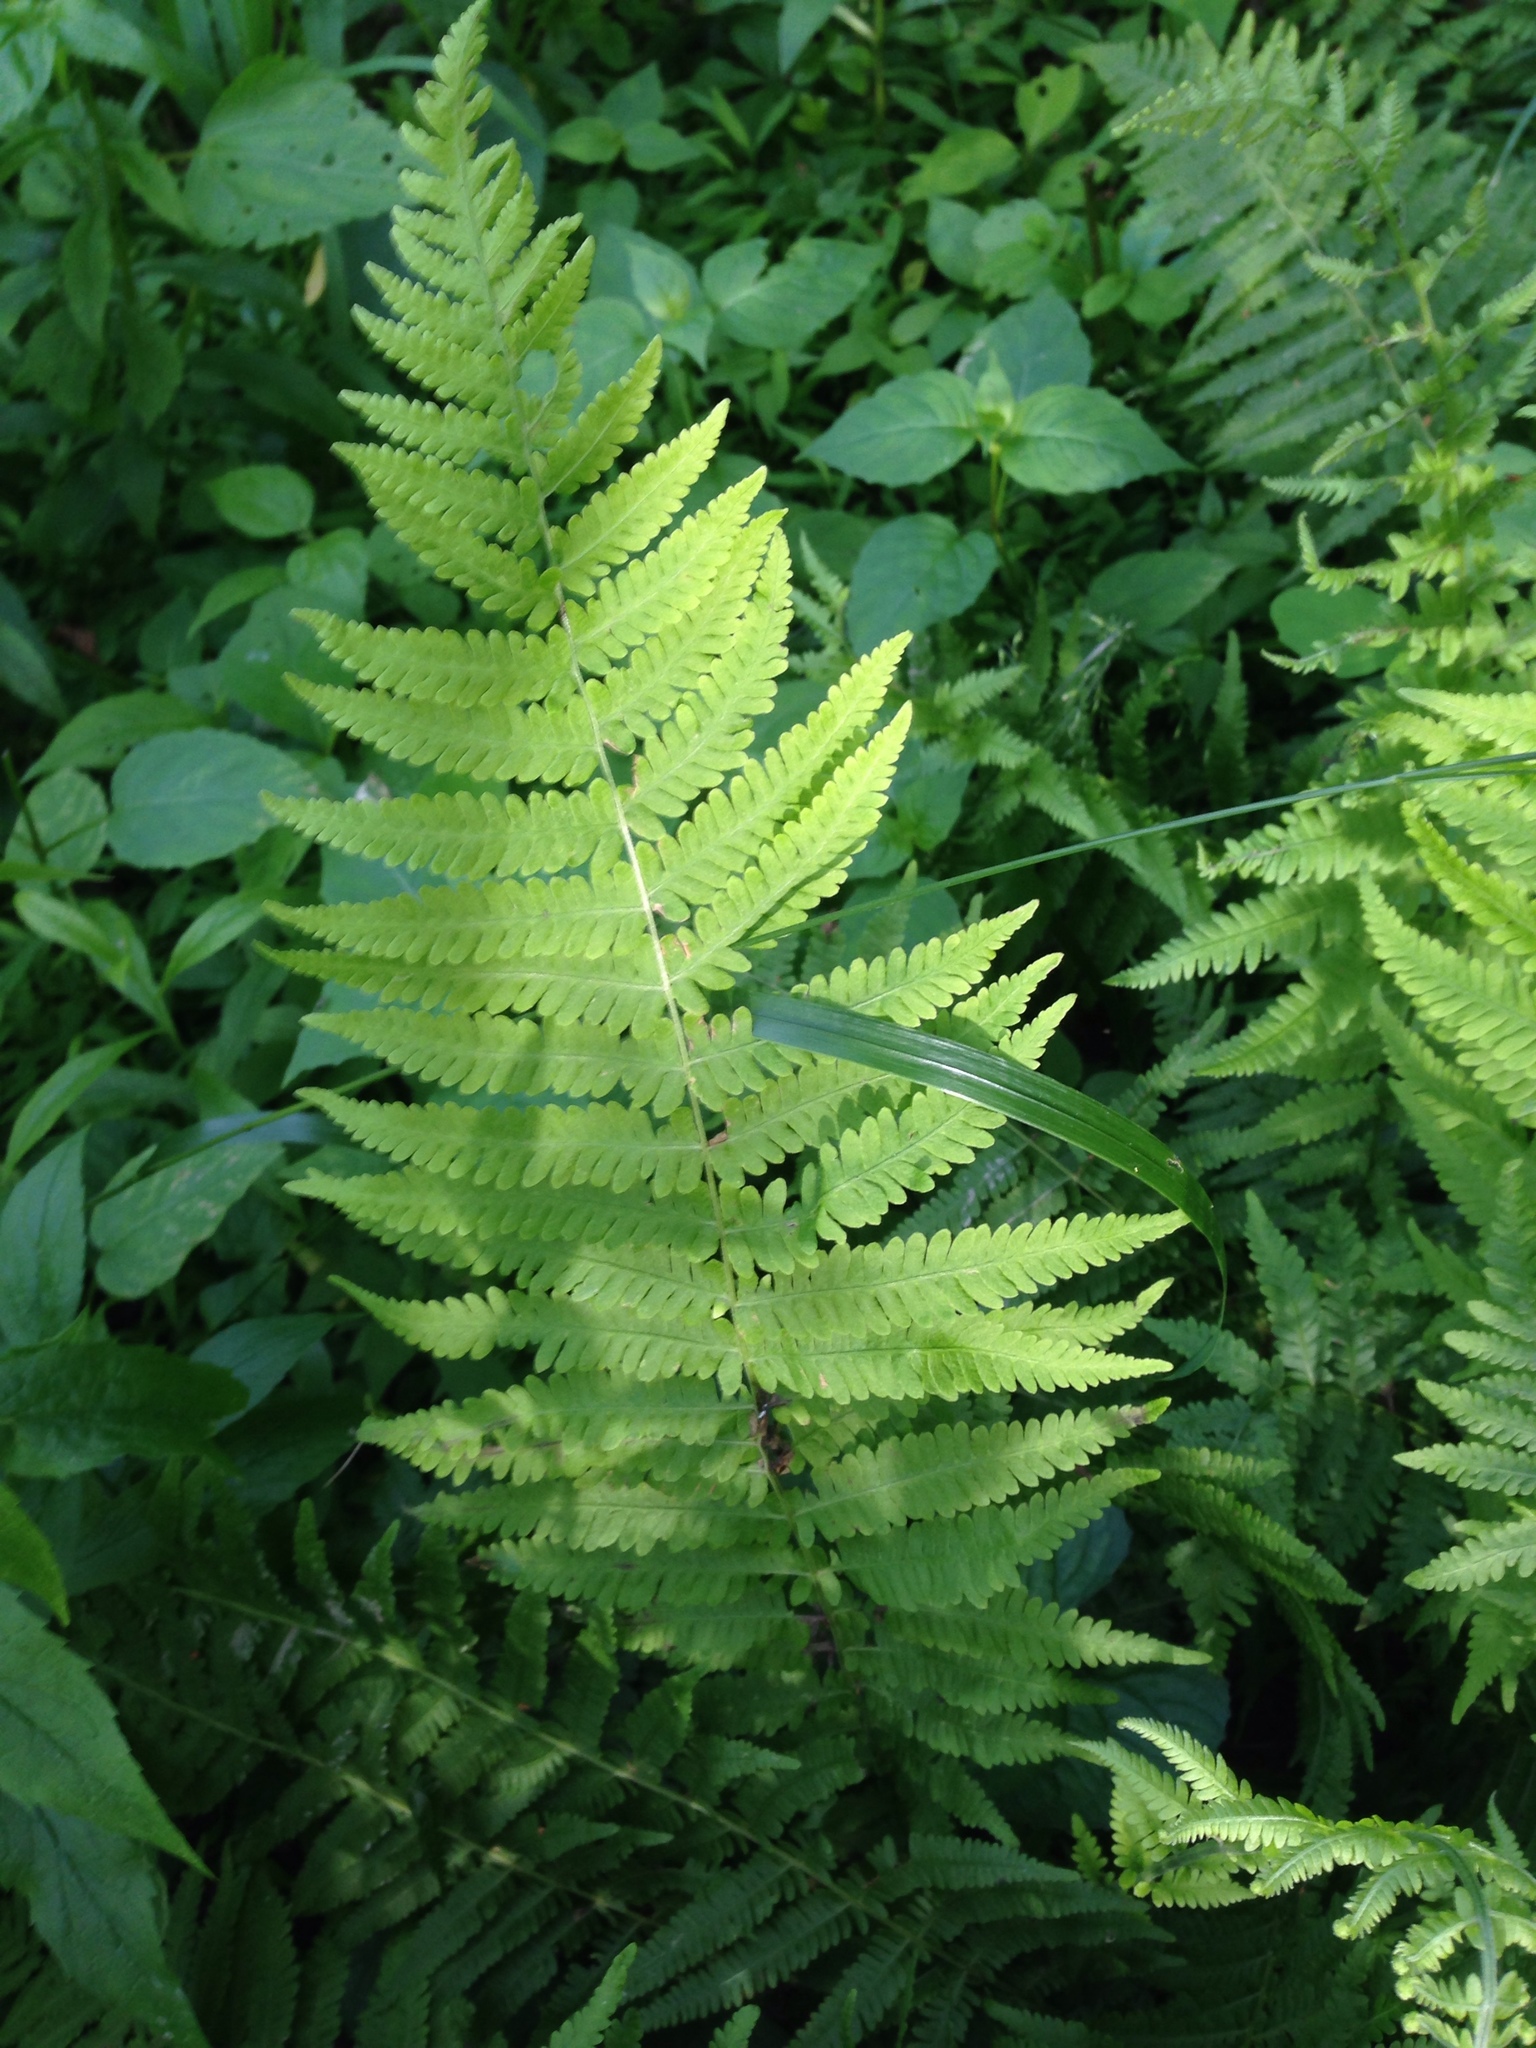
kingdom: Plantae
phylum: Tracheophyta
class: Polypodiopsida
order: Polypodiales
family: Thelypteridaceae
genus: Amauropelta
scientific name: Amauropelta noveboracensis
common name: New york fern
